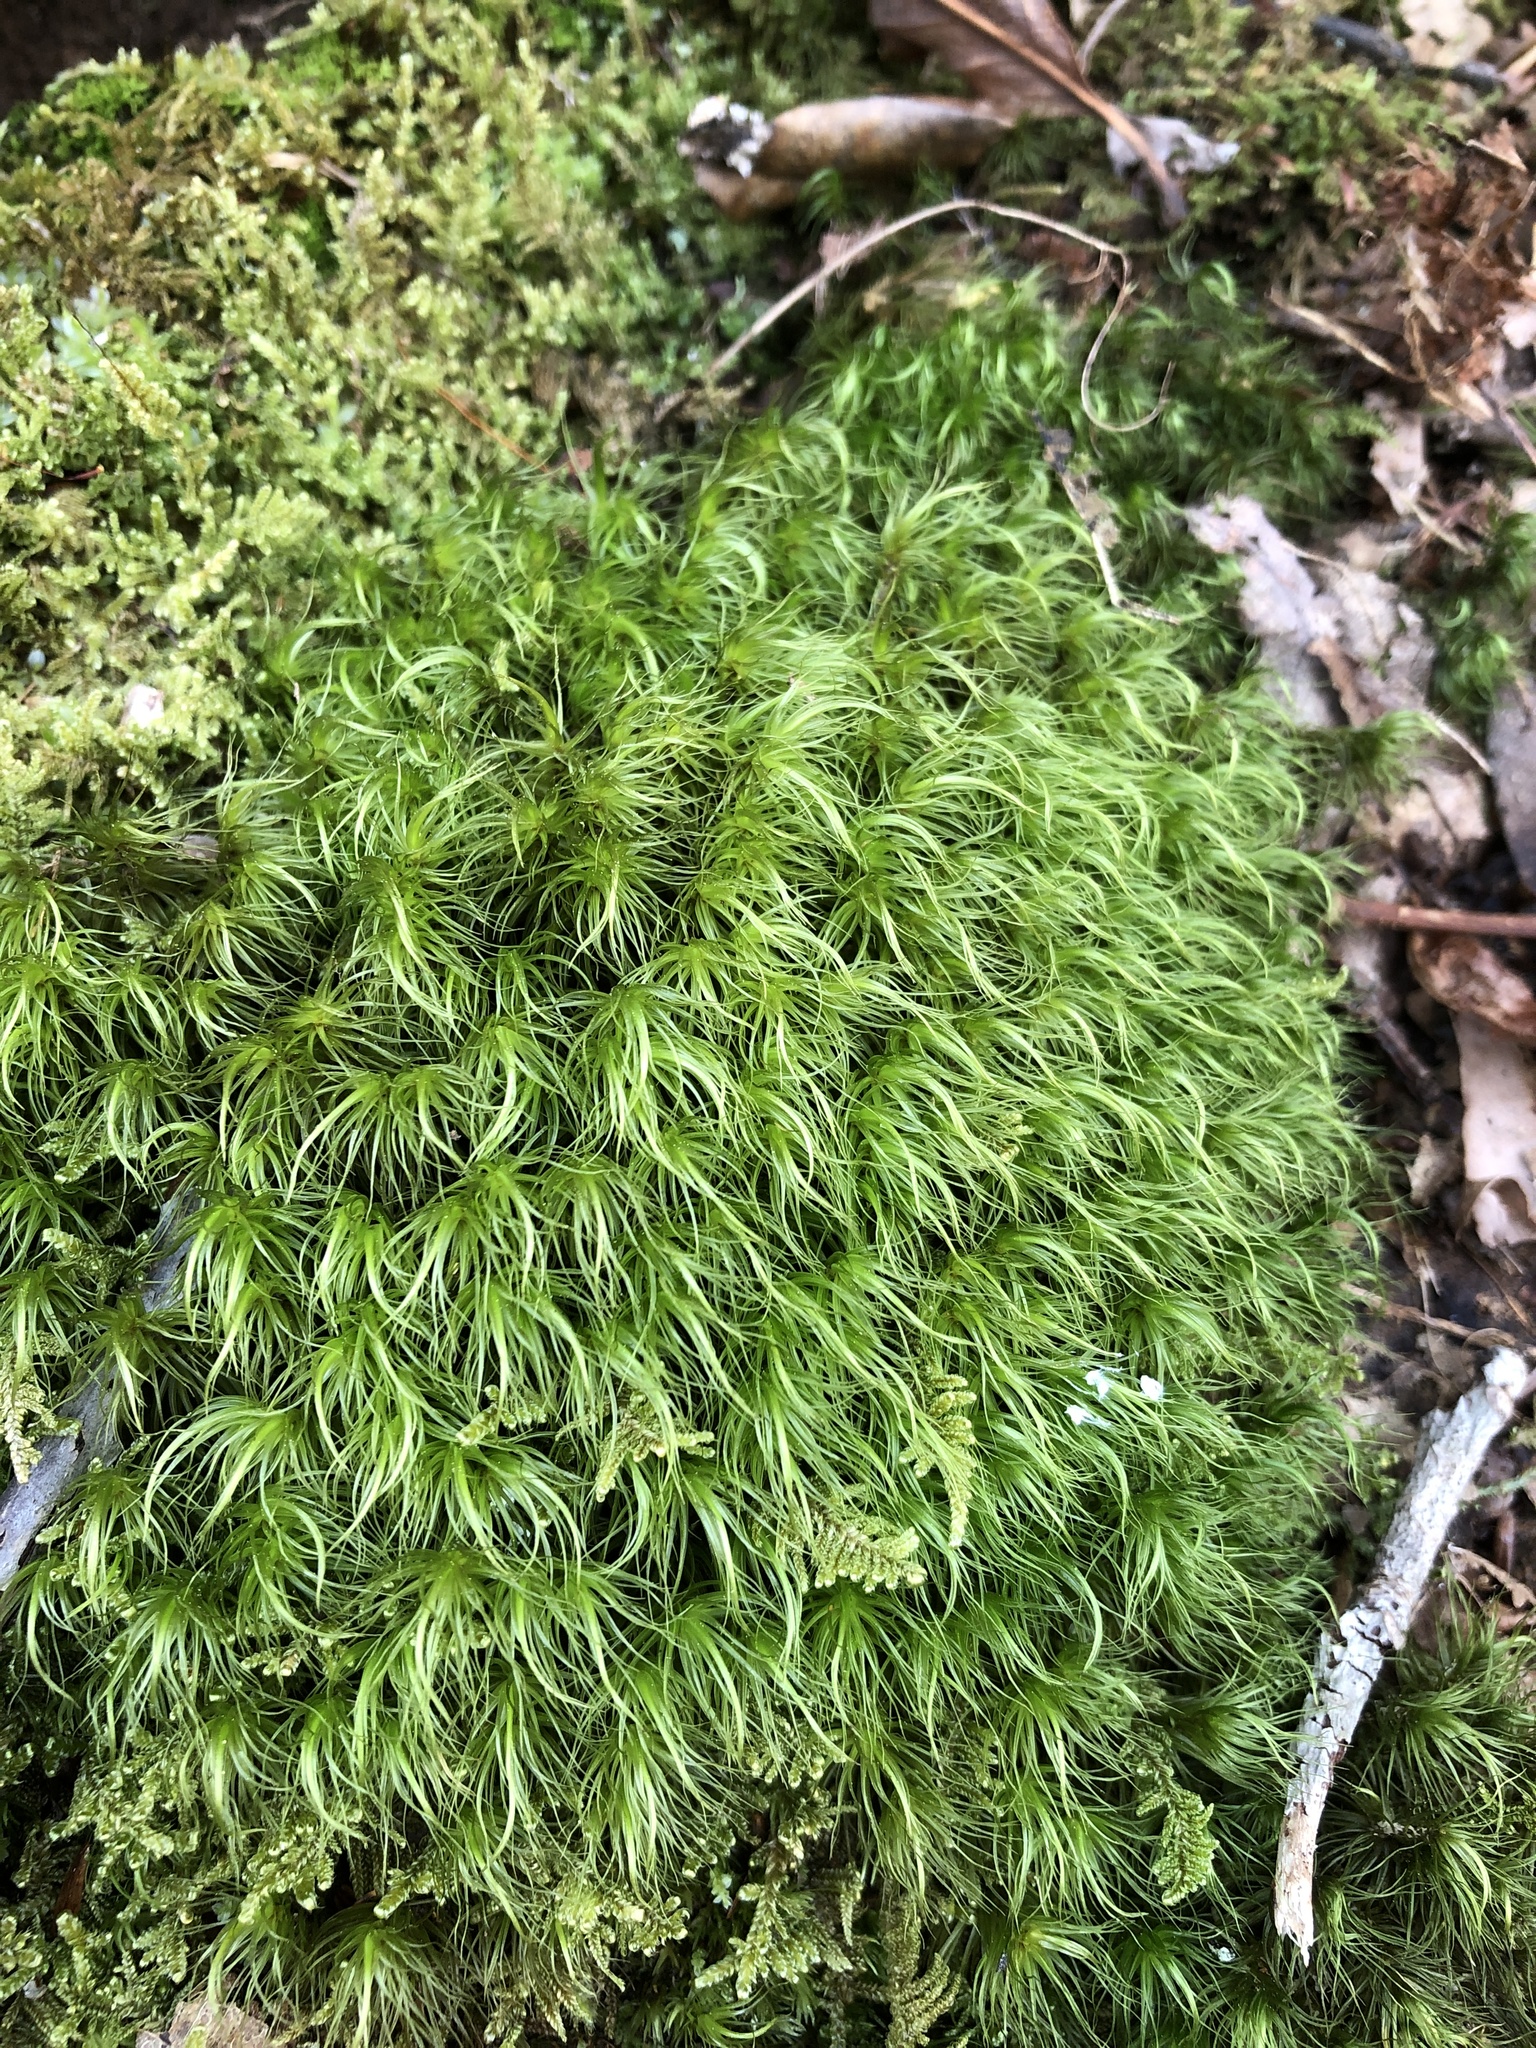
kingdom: Plantae
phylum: Bryophyta
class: Bryopsida
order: Dicranales
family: Dicranaceae
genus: Dicranum
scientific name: Dicranum scoparium
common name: Broom fork-moss
